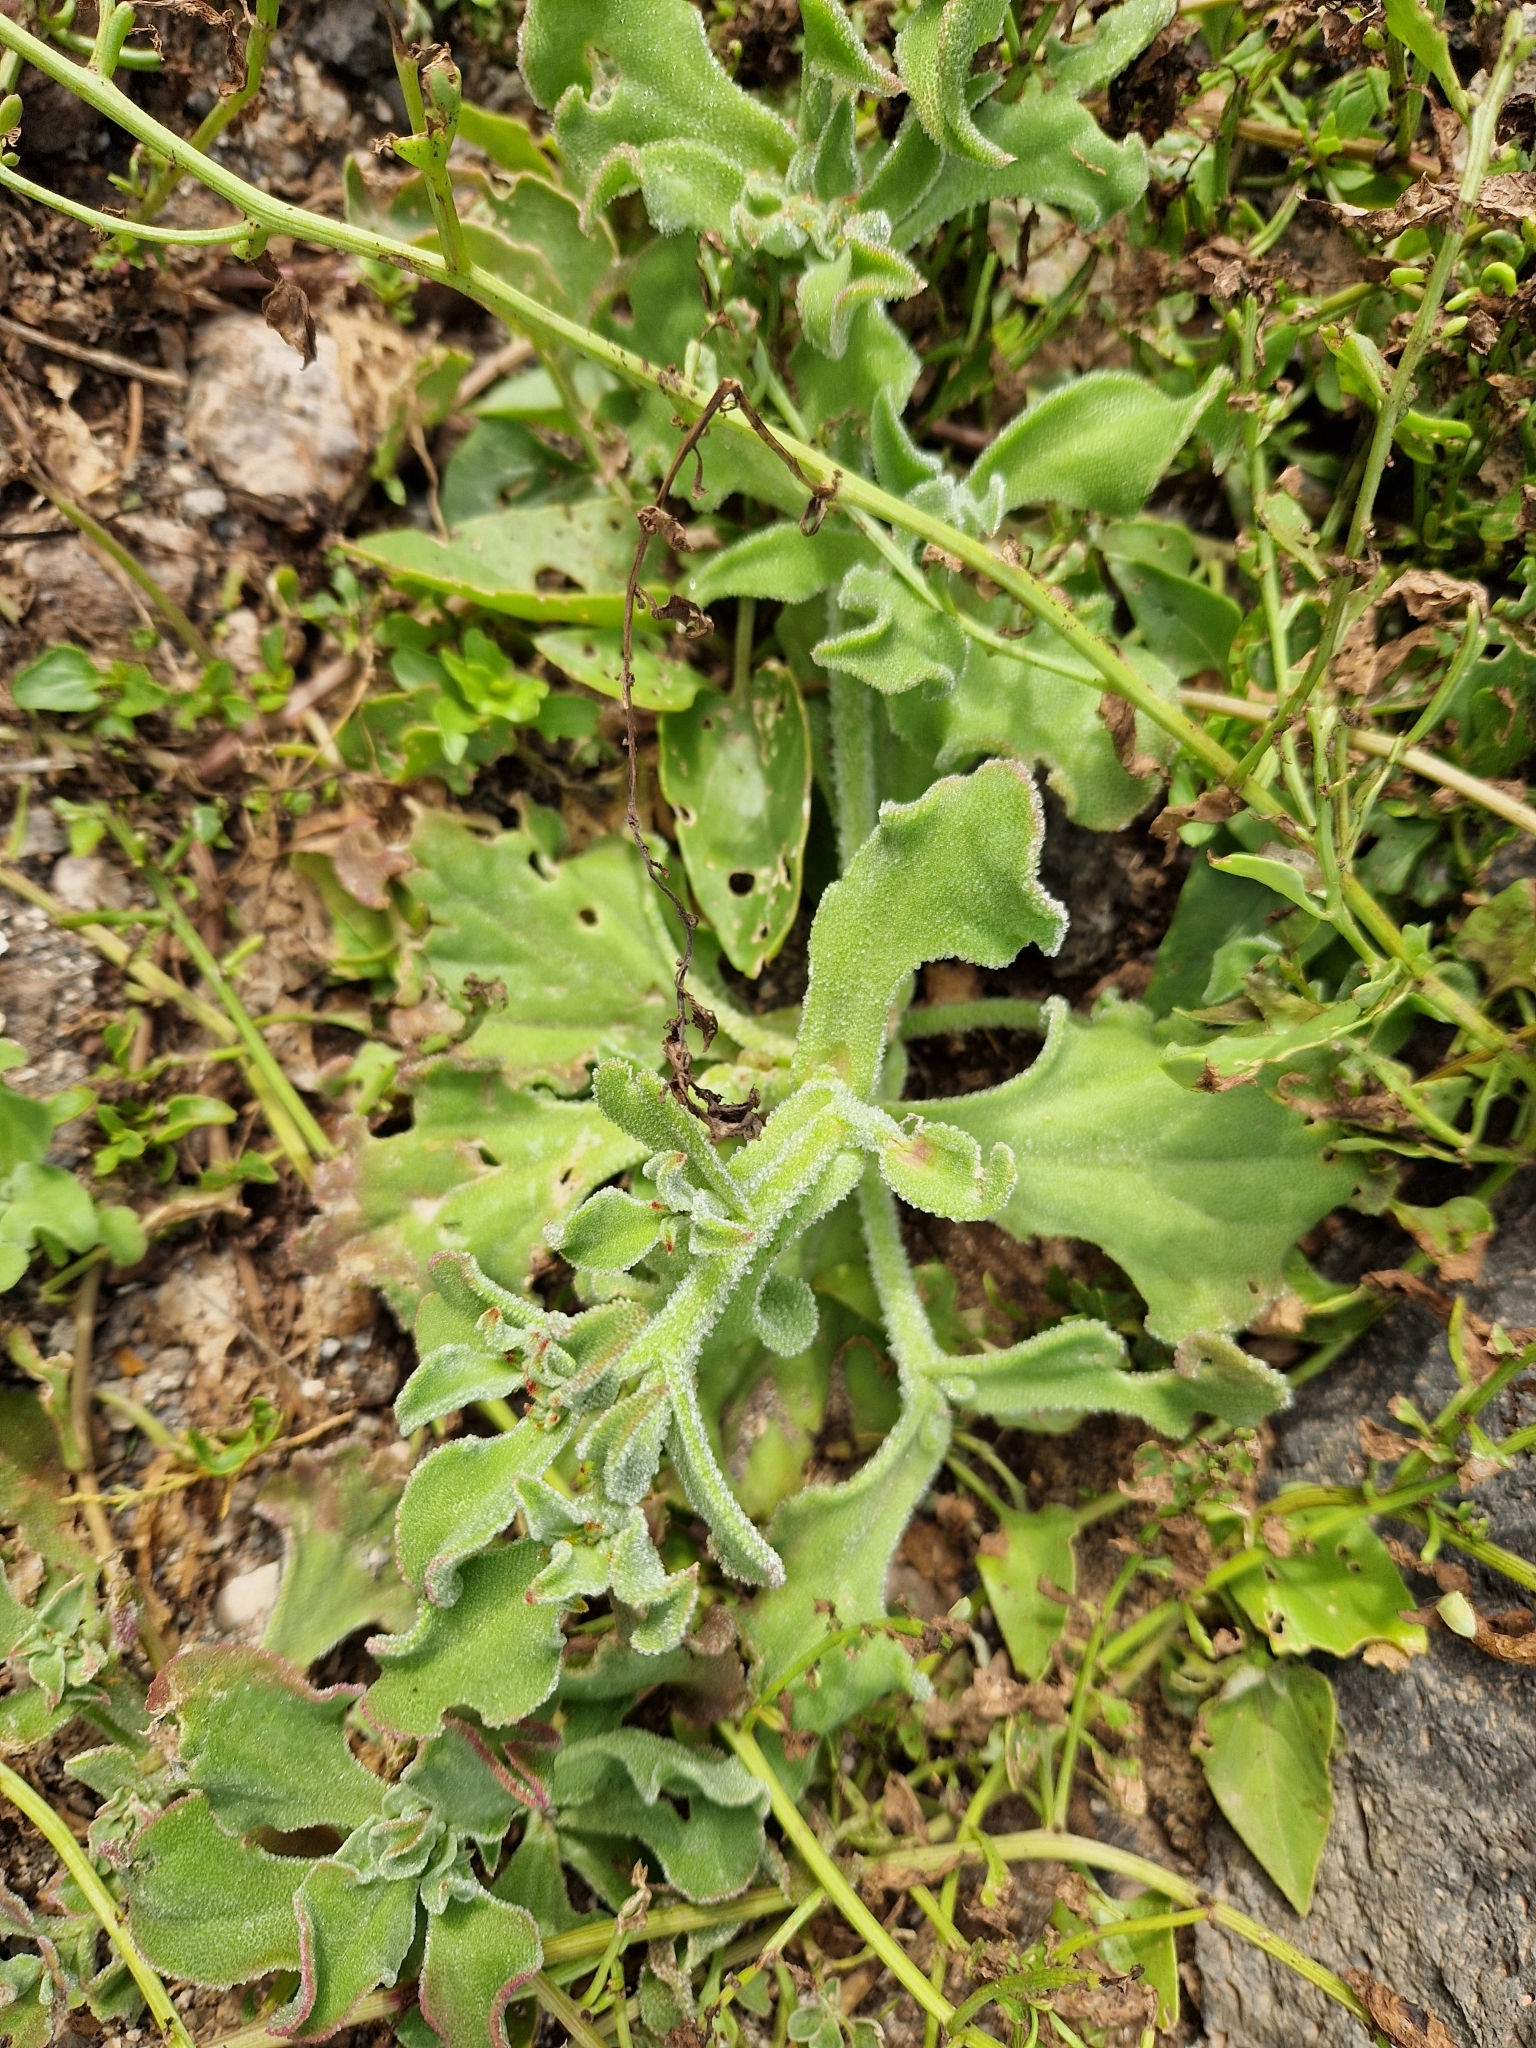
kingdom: Plantae
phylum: Tracheophyta
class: Magnoliopsida
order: Caryophyllales
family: Aizoaceae
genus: Mesembryanthemum
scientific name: Mesembryanthemum crystallinum
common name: Common iceplant
